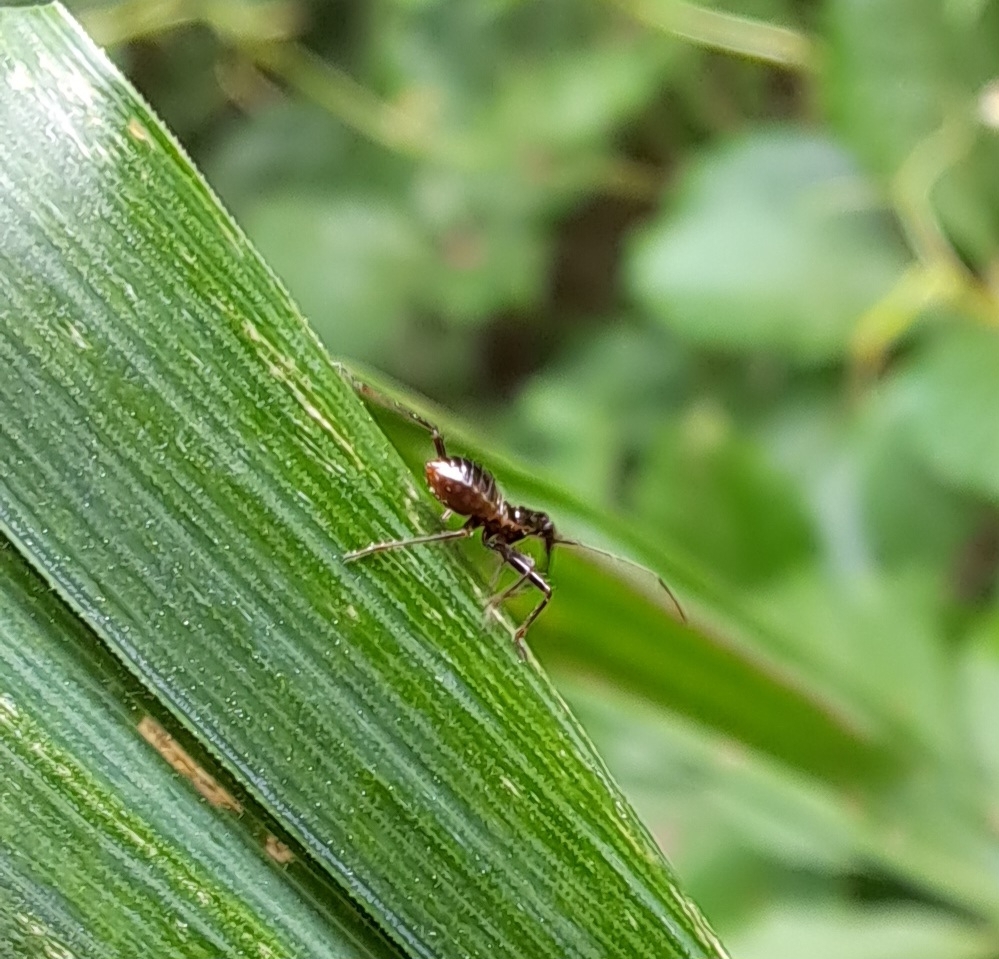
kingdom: Animalia
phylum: Arthropoda
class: Insecta
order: Hemiptera
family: Nabidae
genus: Himacerus
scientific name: Himacerus apterus
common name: Tree damsel bug
